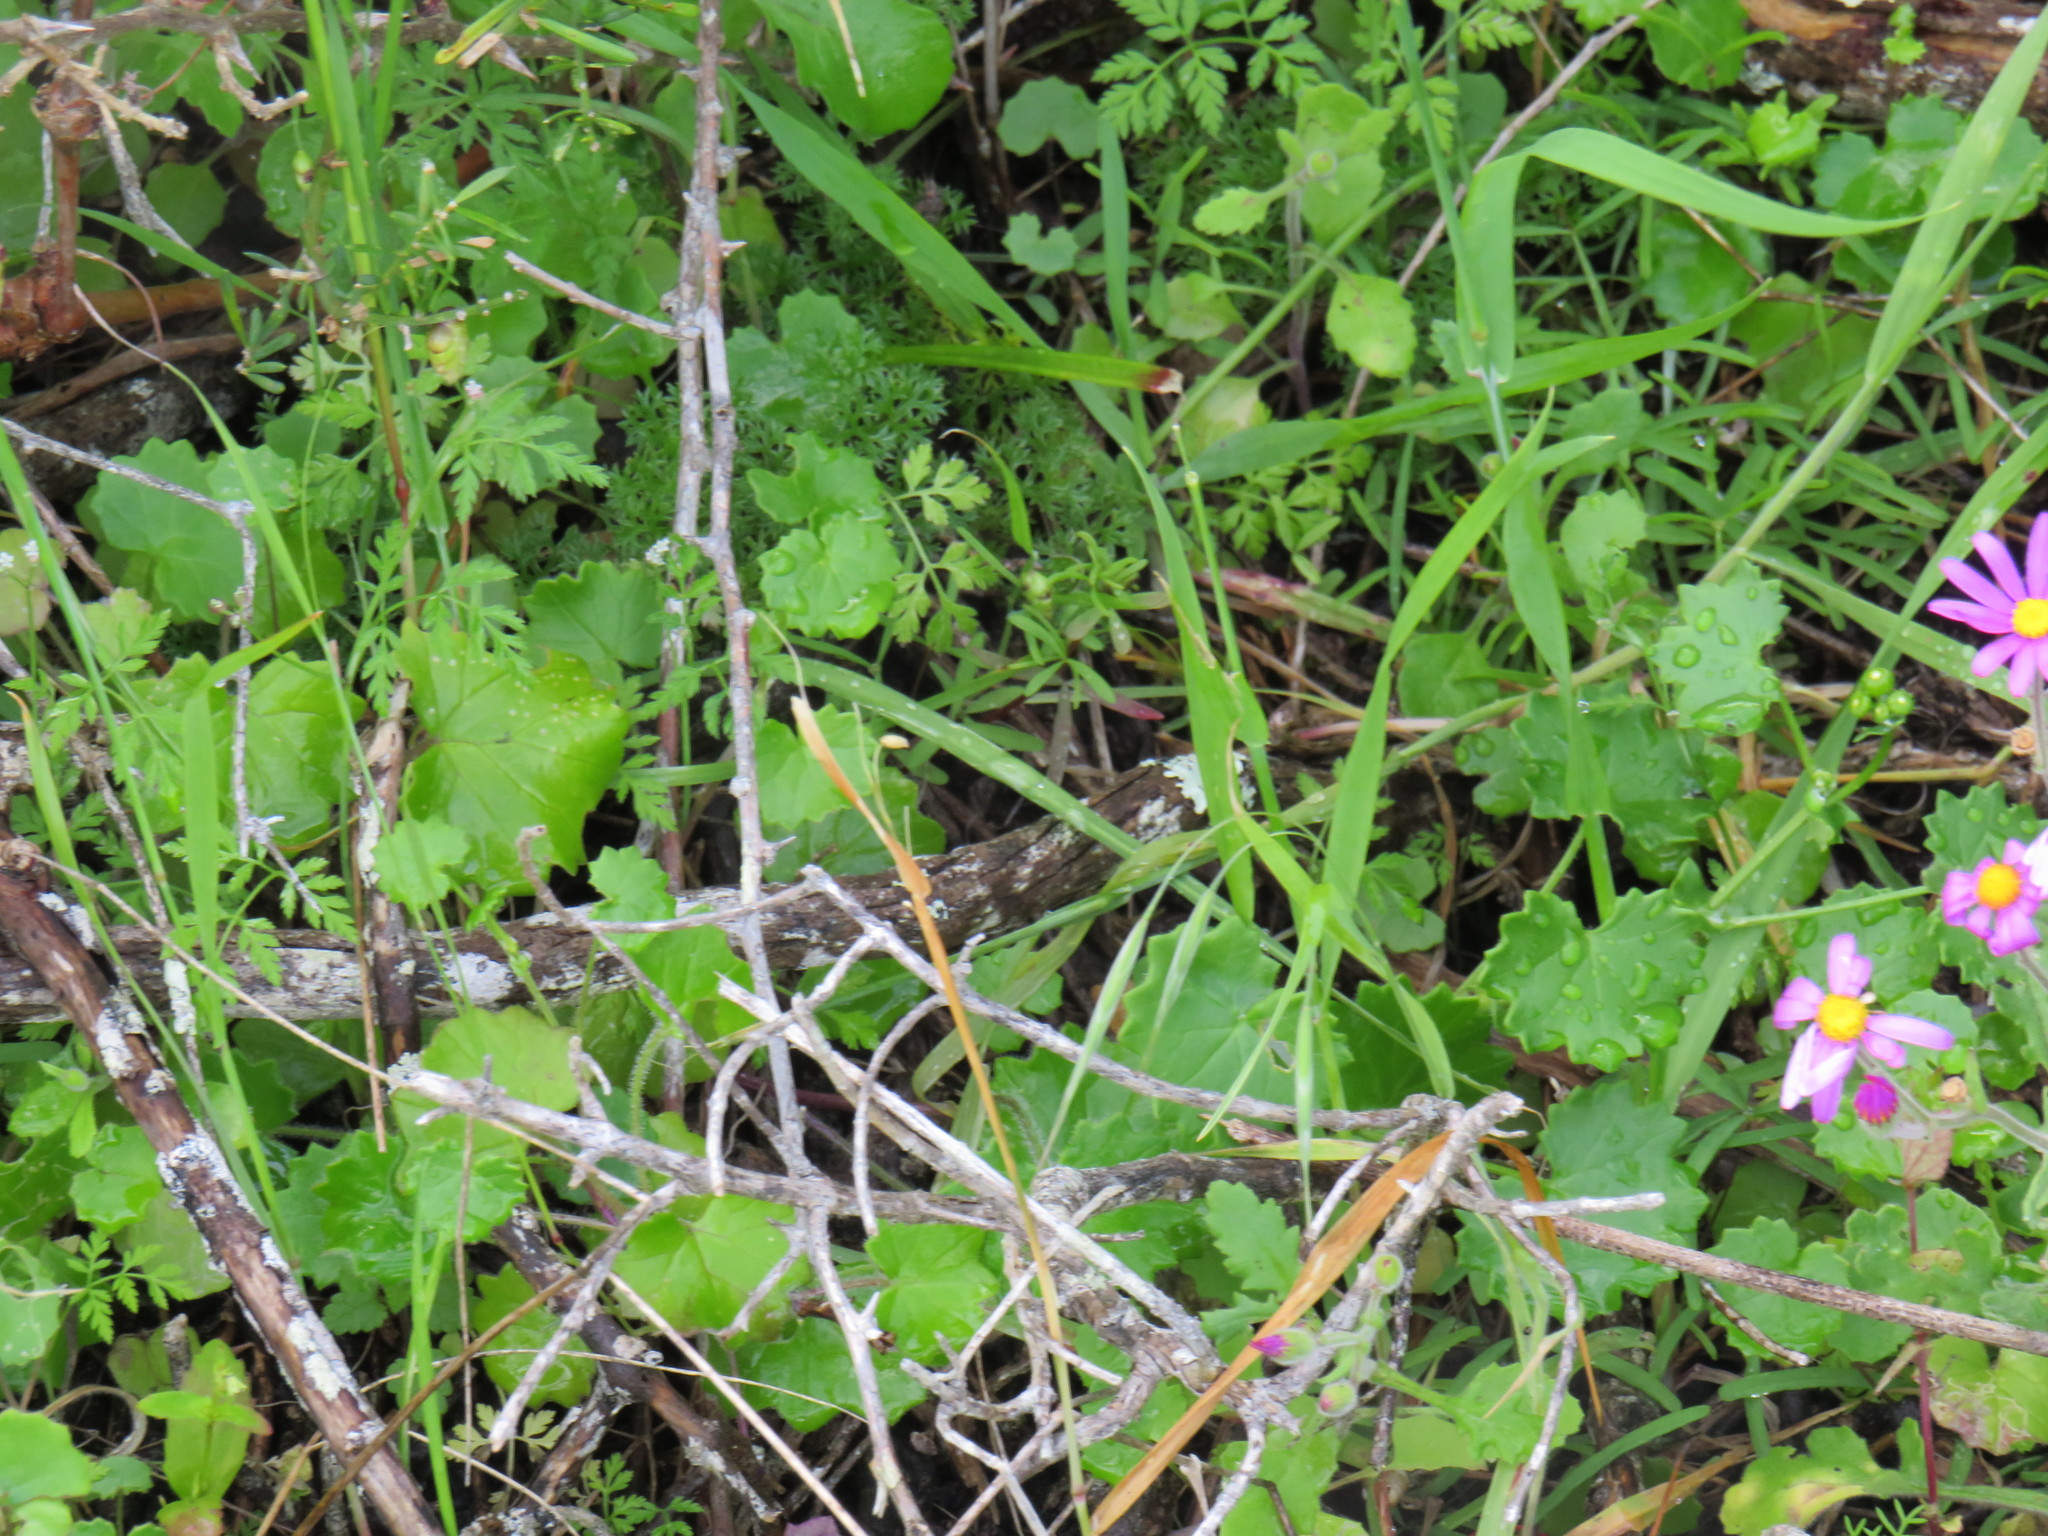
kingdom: Plantae
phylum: Tracheophyta
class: Magnoliopsida
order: Asterales
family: Asteraceae
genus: Cineraria
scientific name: Cineraria geifolia
